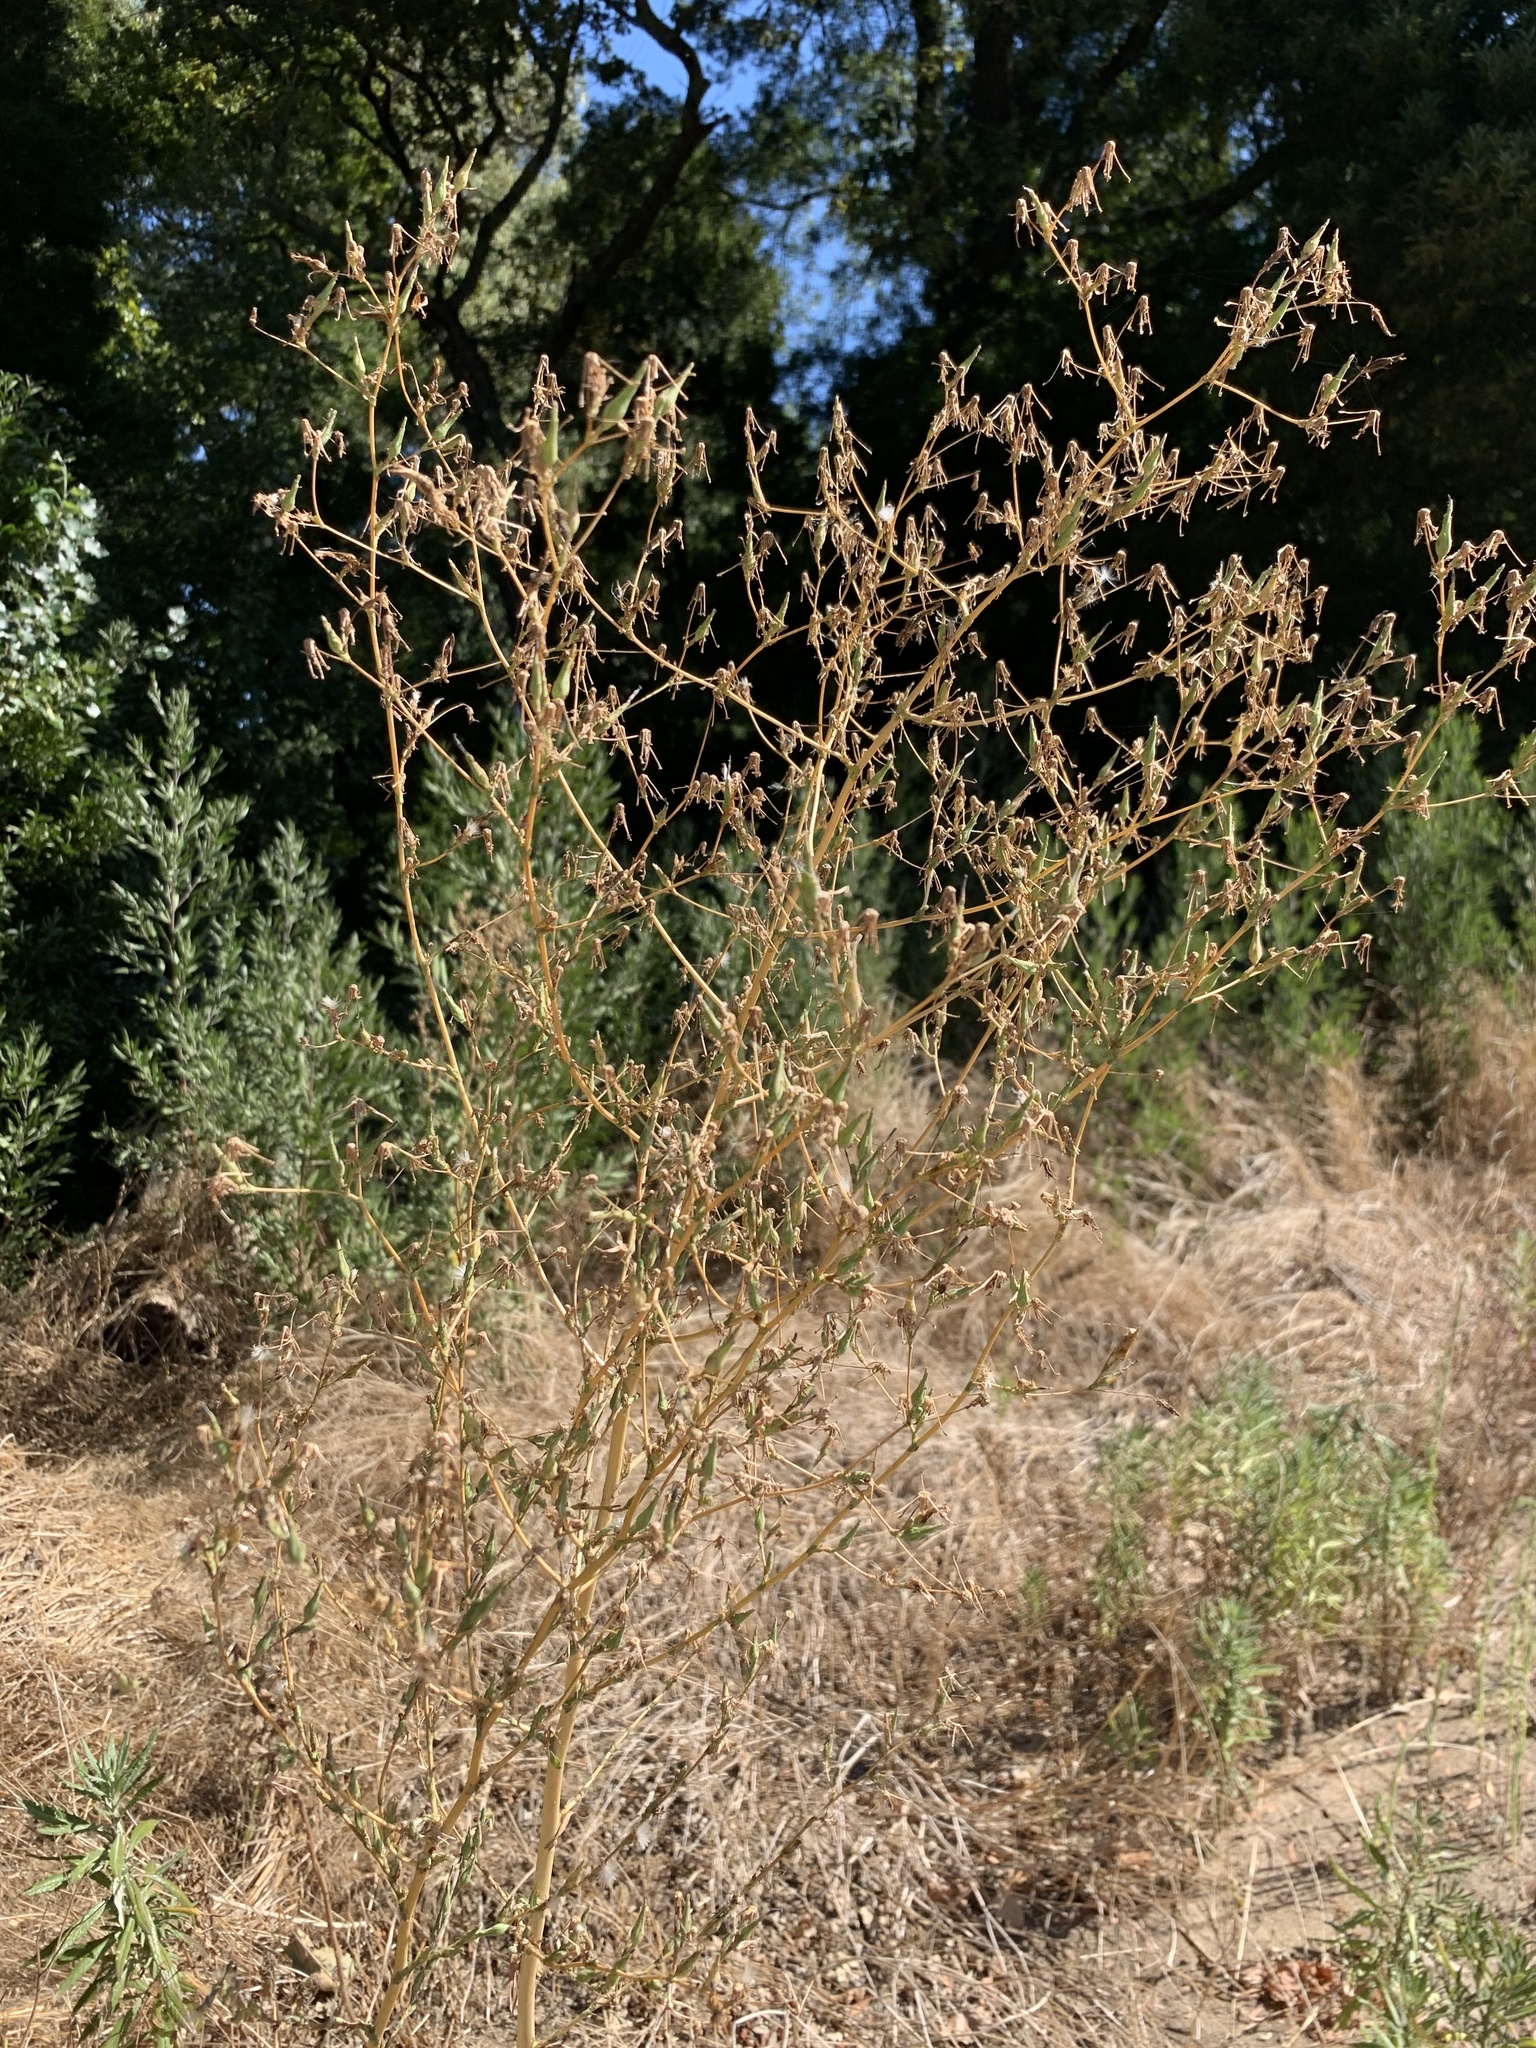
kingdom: Plantae
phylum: Tracheophyta
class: Magnoliopsida
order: Asterales
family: Asteraceae
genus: Lactuca
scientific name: Lactuca serriola
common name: Prickly lettuce
